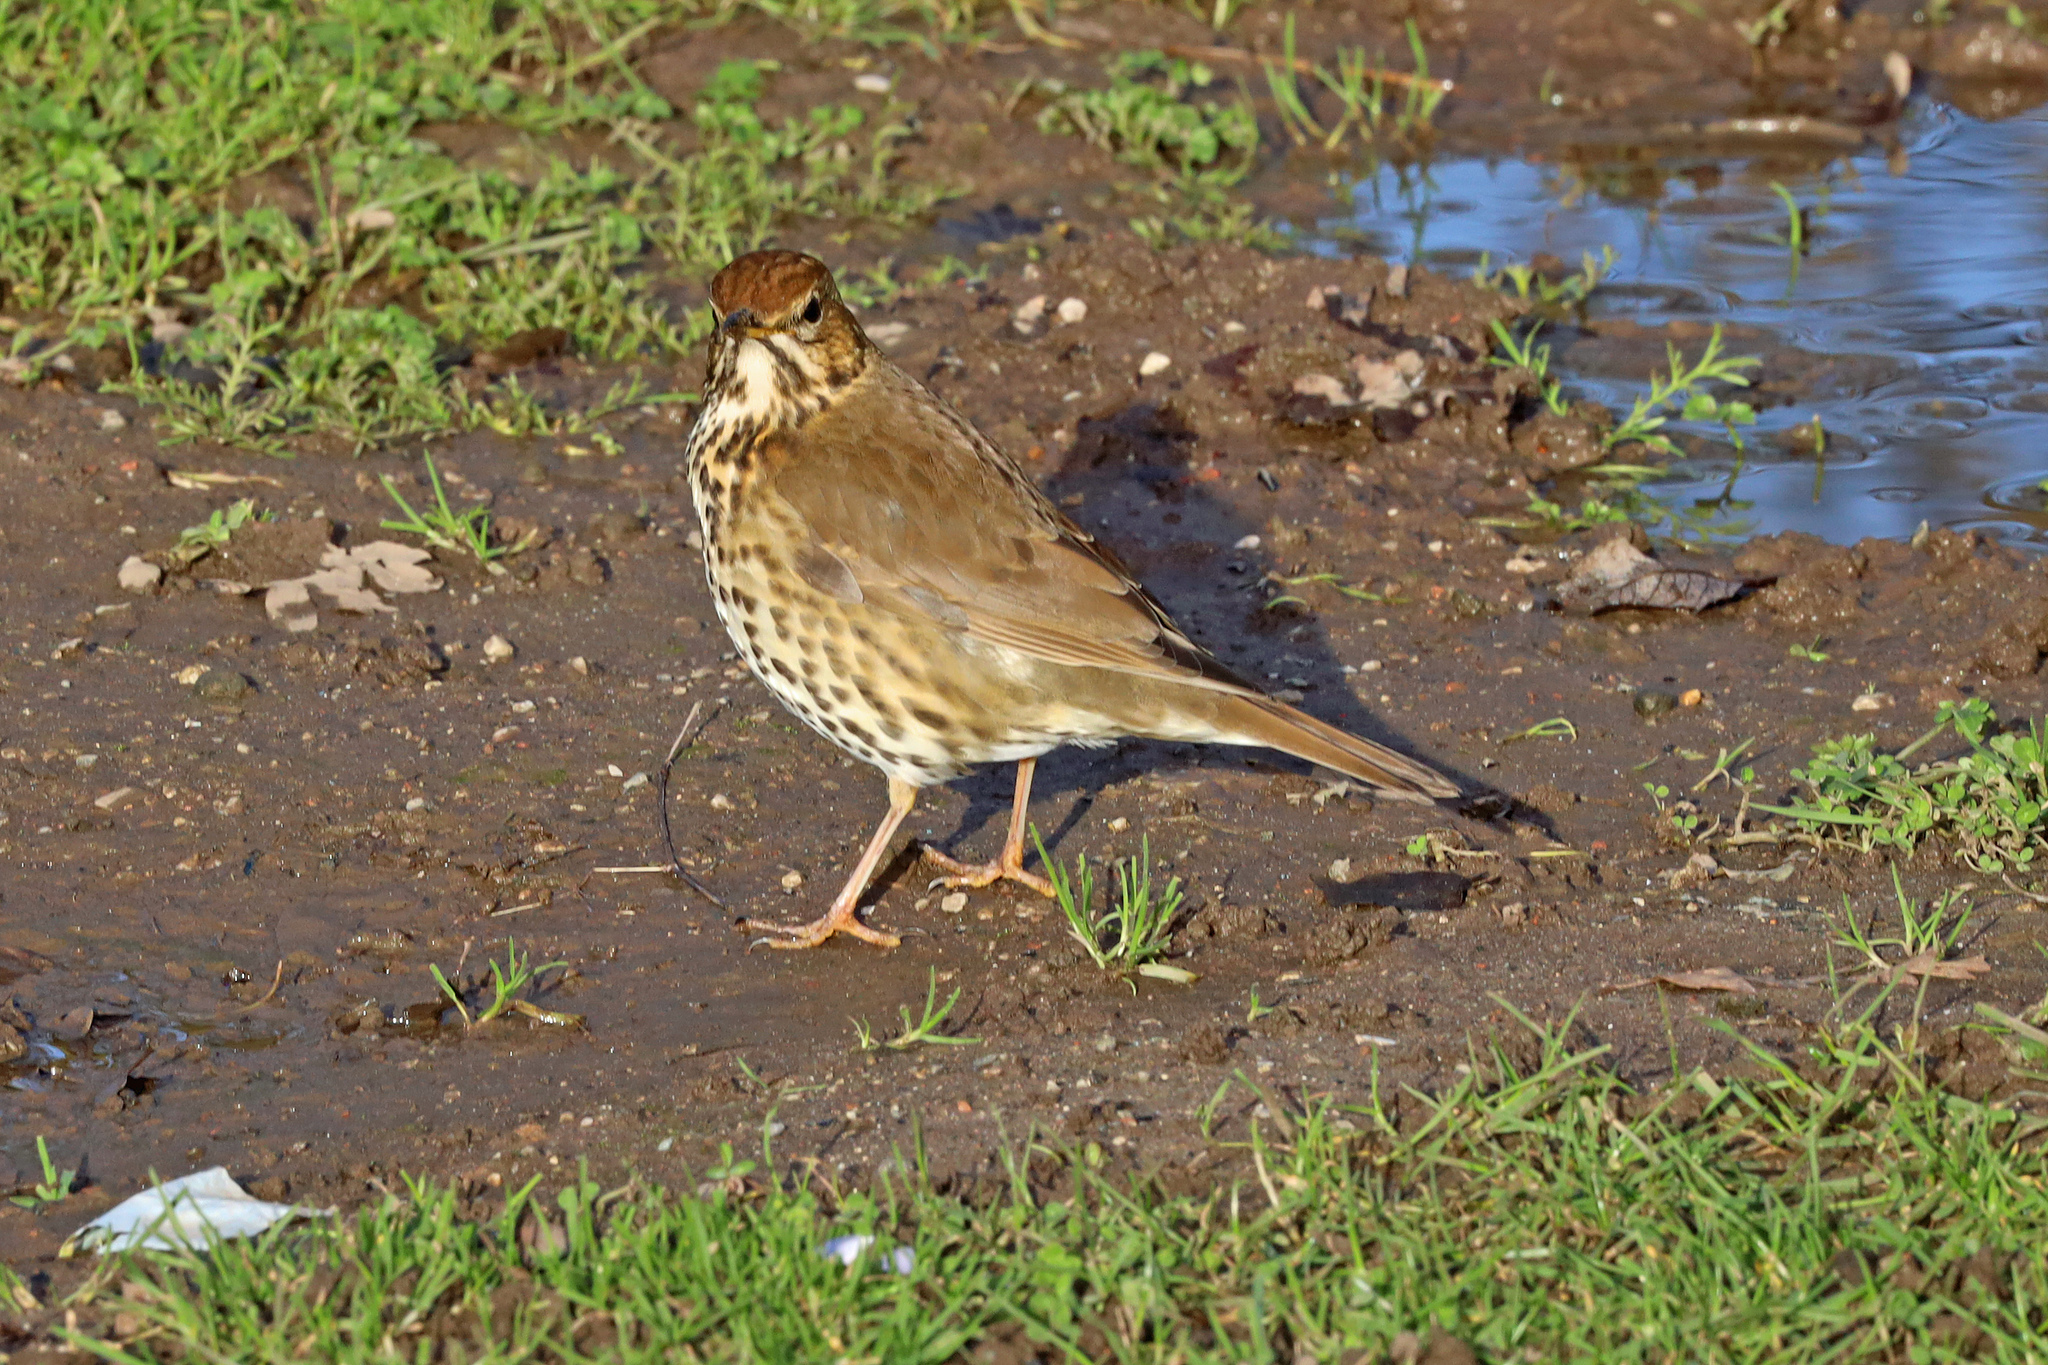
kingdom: Animalia
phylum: Chordata
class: Aves
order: Passeriformes
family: Turdidae
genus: Turdus
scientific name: Turdus philomelos
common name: Song thrush
